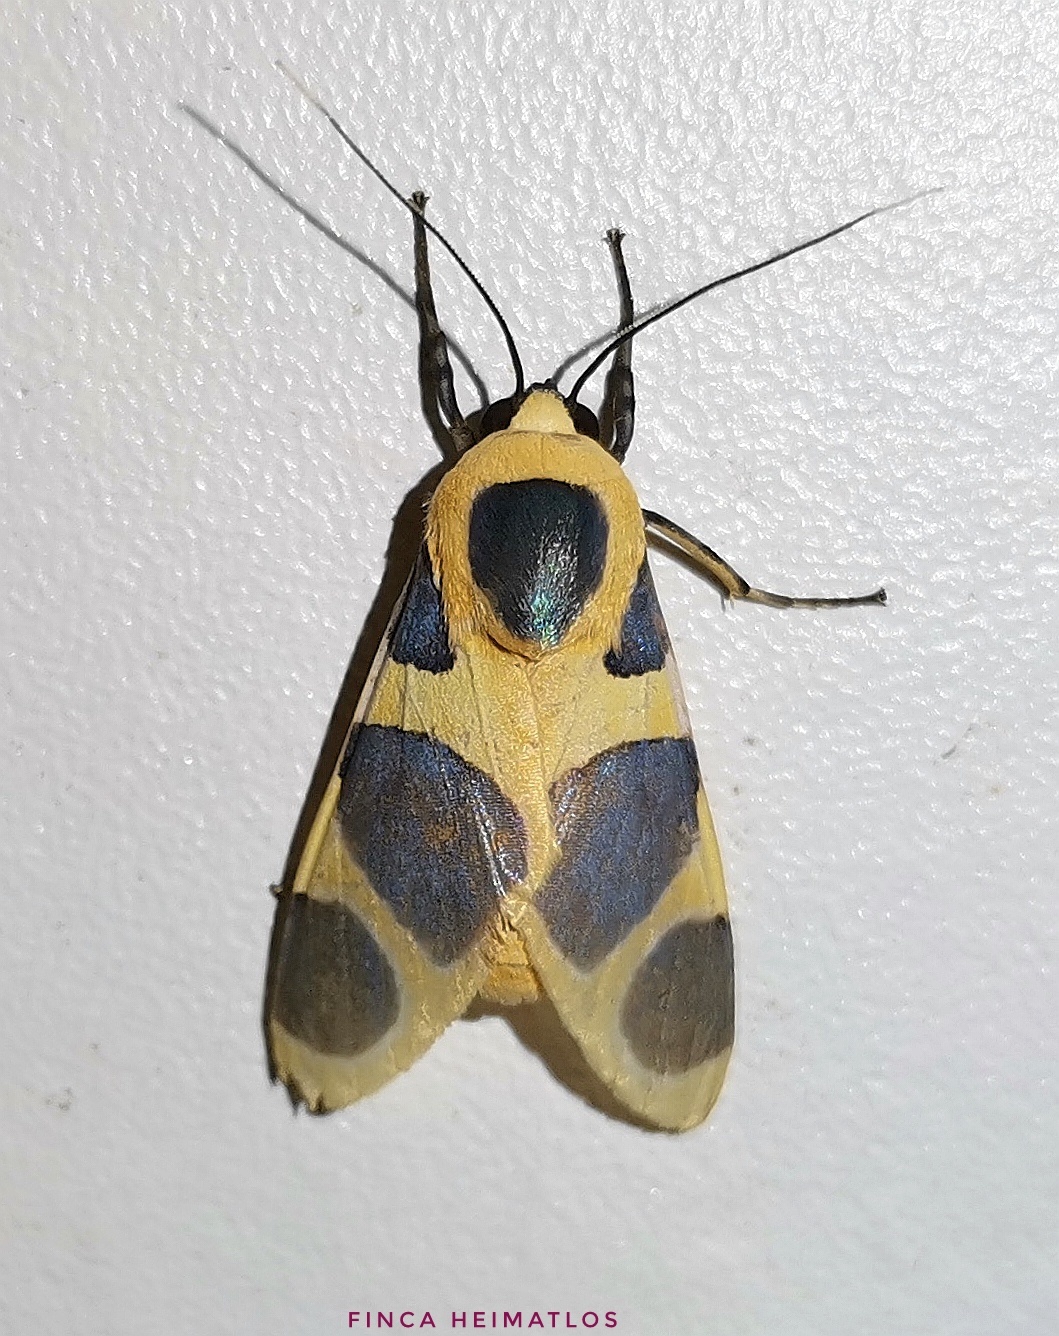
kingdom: Animalia
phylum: Arthropoda
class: Insecta
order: Lepidoptera
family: Erebidae
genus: Emurena
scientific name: Emurena lurida
